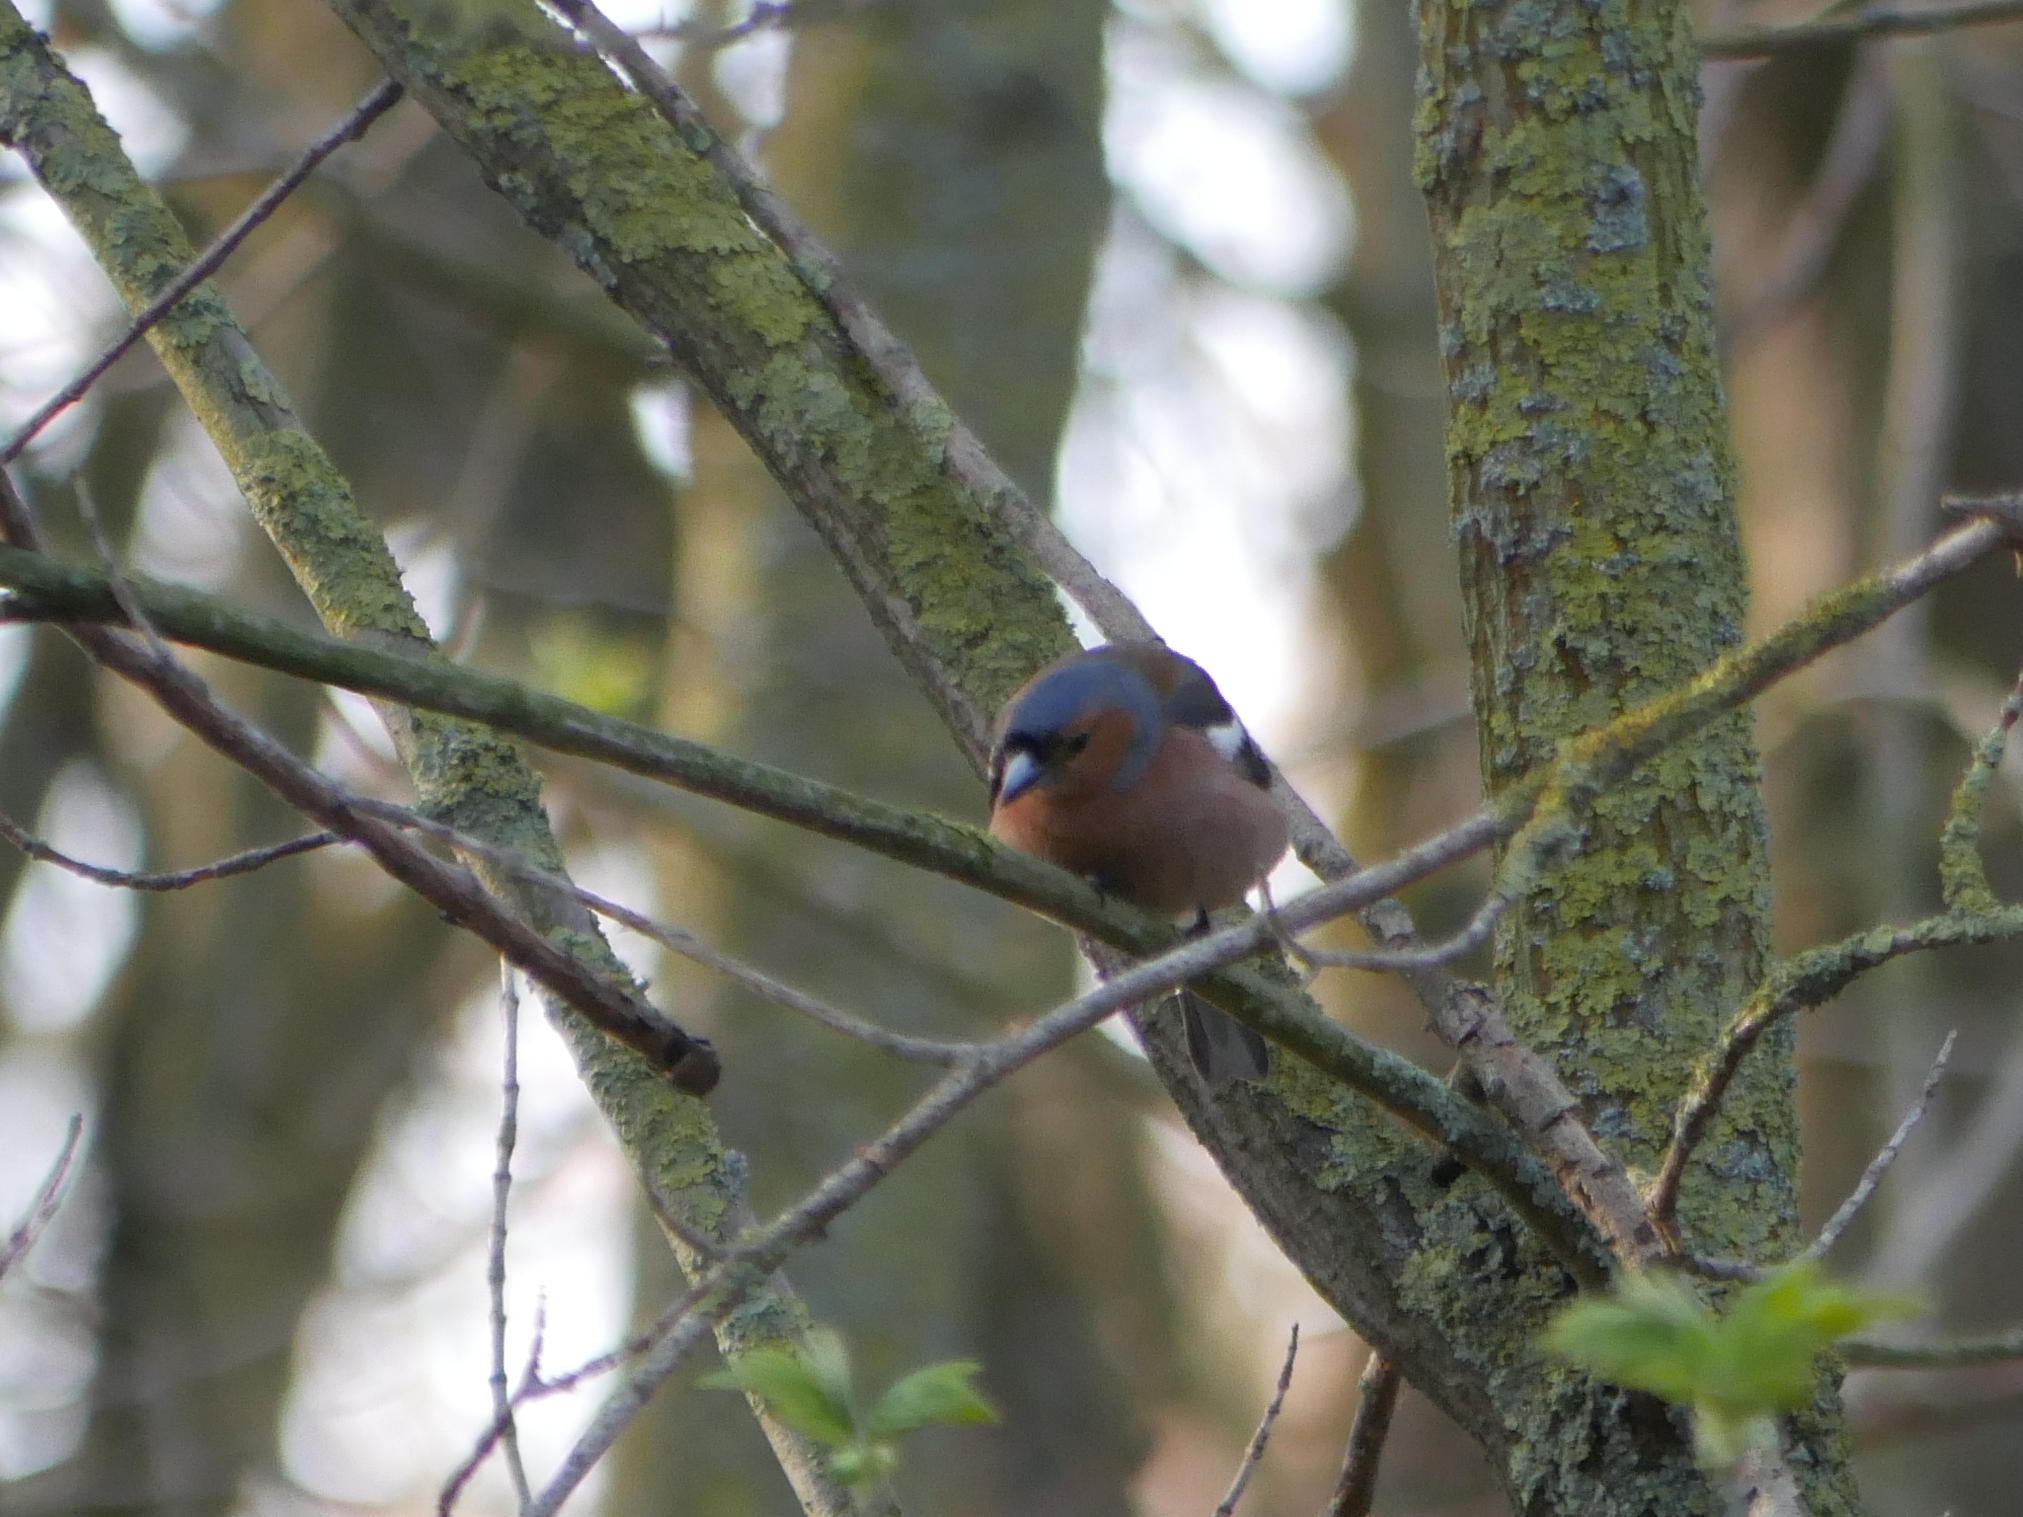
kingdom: Animalia
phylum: Chordata
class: Aves
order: Passeriformes
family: Fringillidae
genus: Fringilla
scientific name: Fringilla coelebs
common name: Common chaffinch
